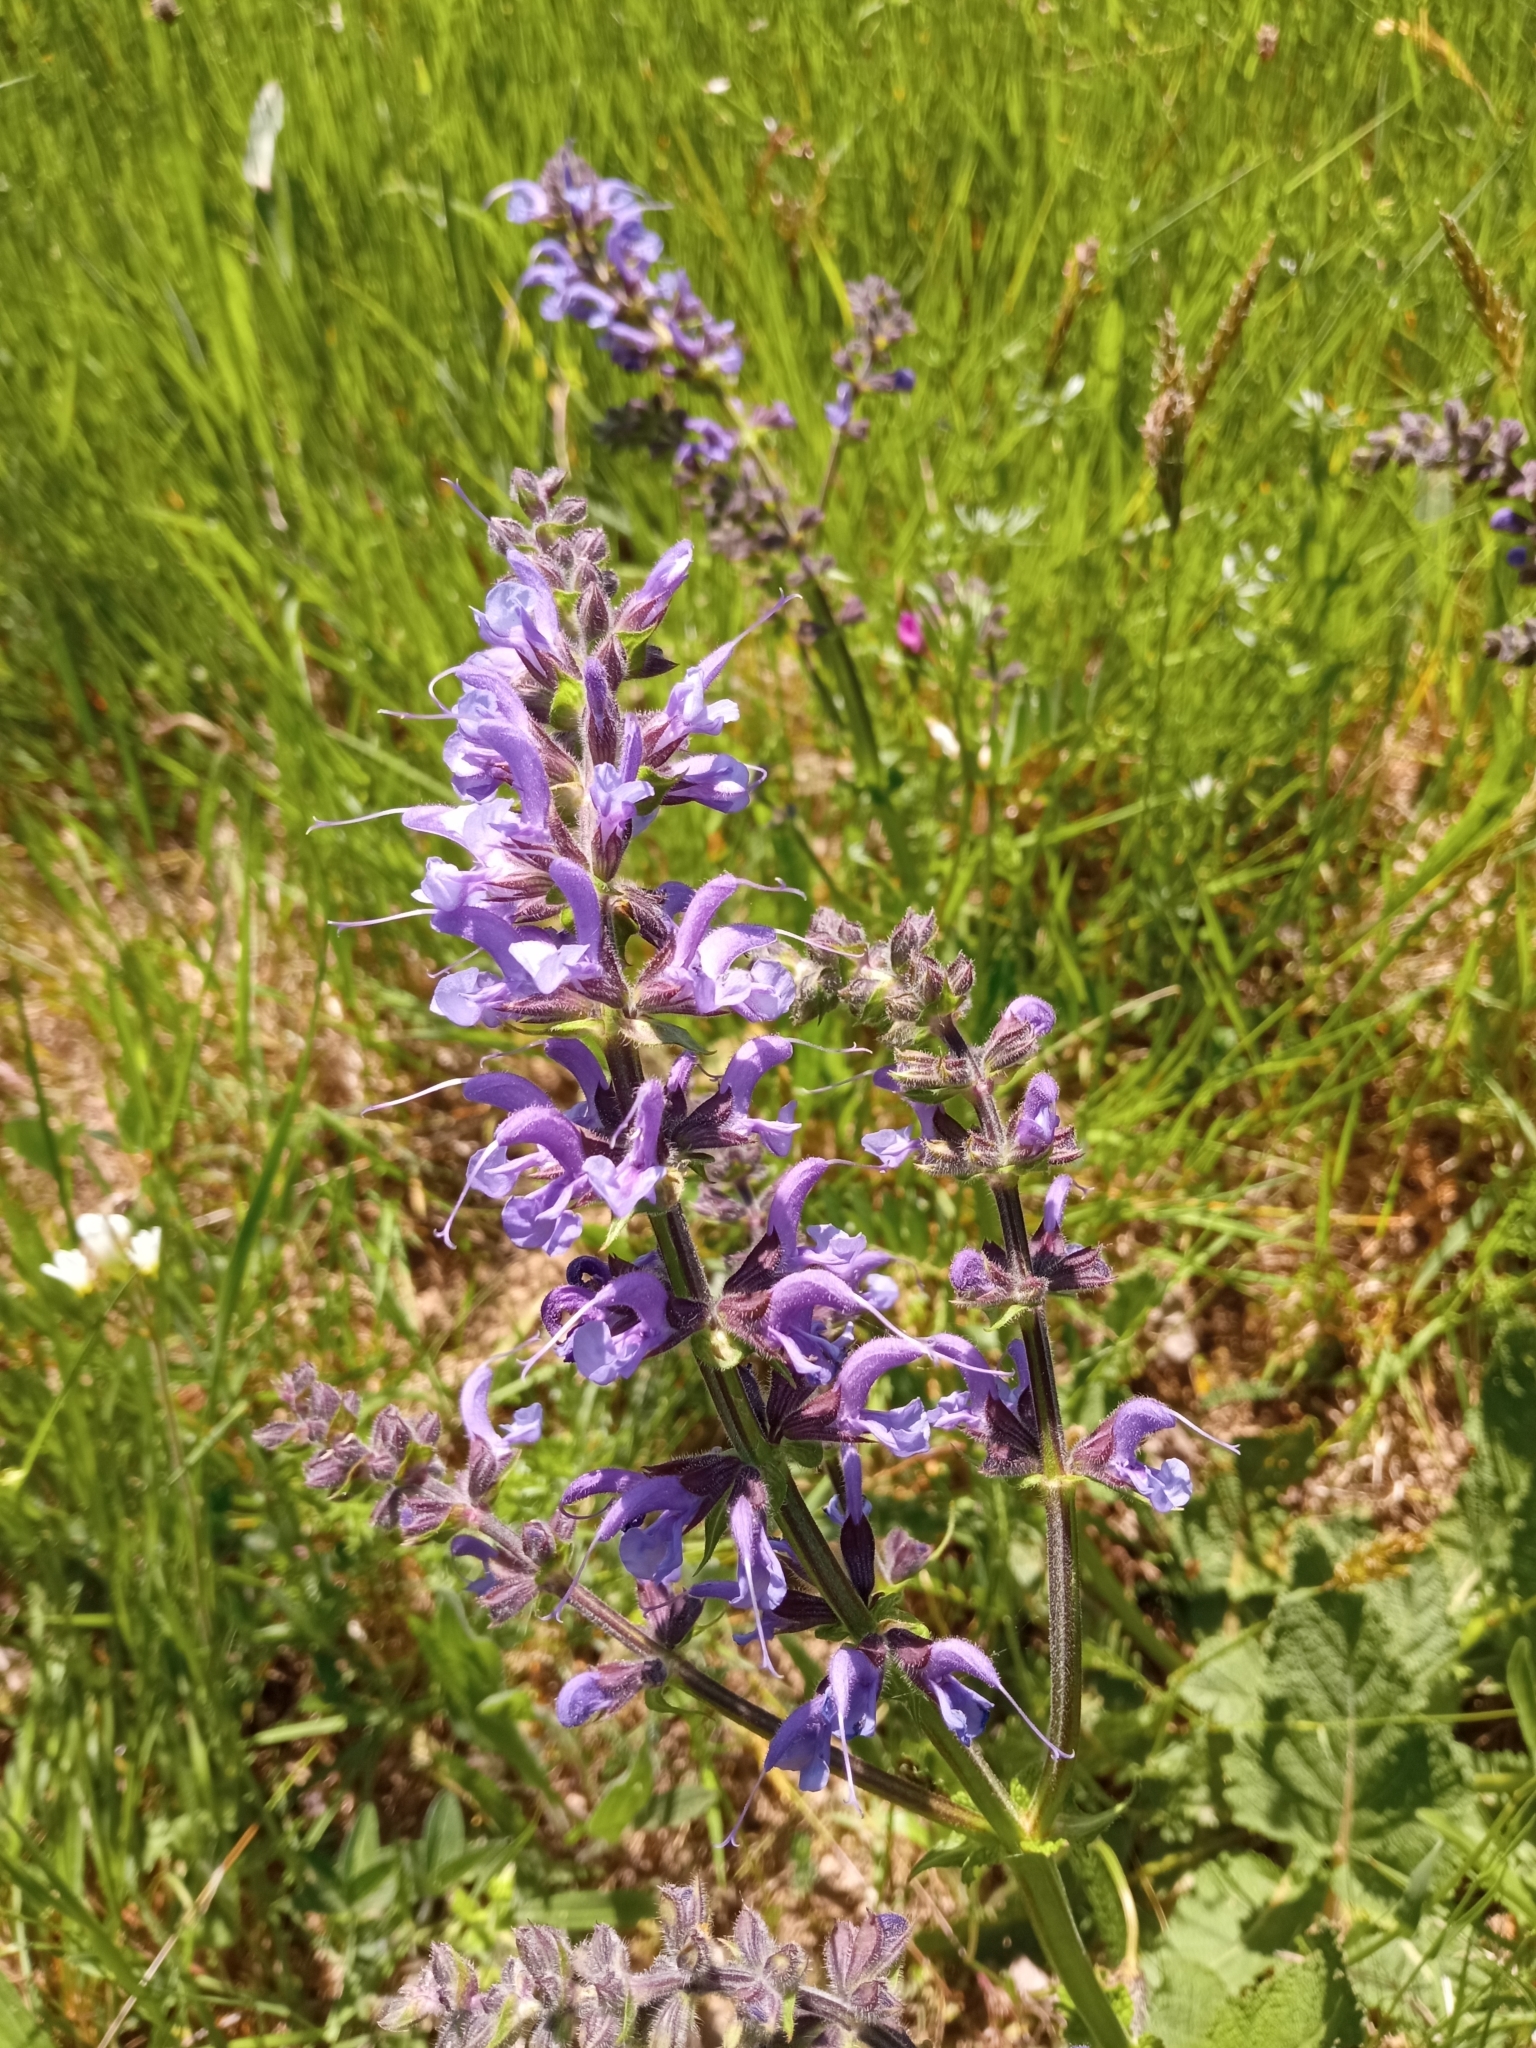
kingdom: Plantae
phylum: Tracheophyta
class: Magnoliopsida
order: Lamiales
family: Lamiaceae
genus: Salvia
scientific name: Salvia pratensis
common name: Meadow sage
